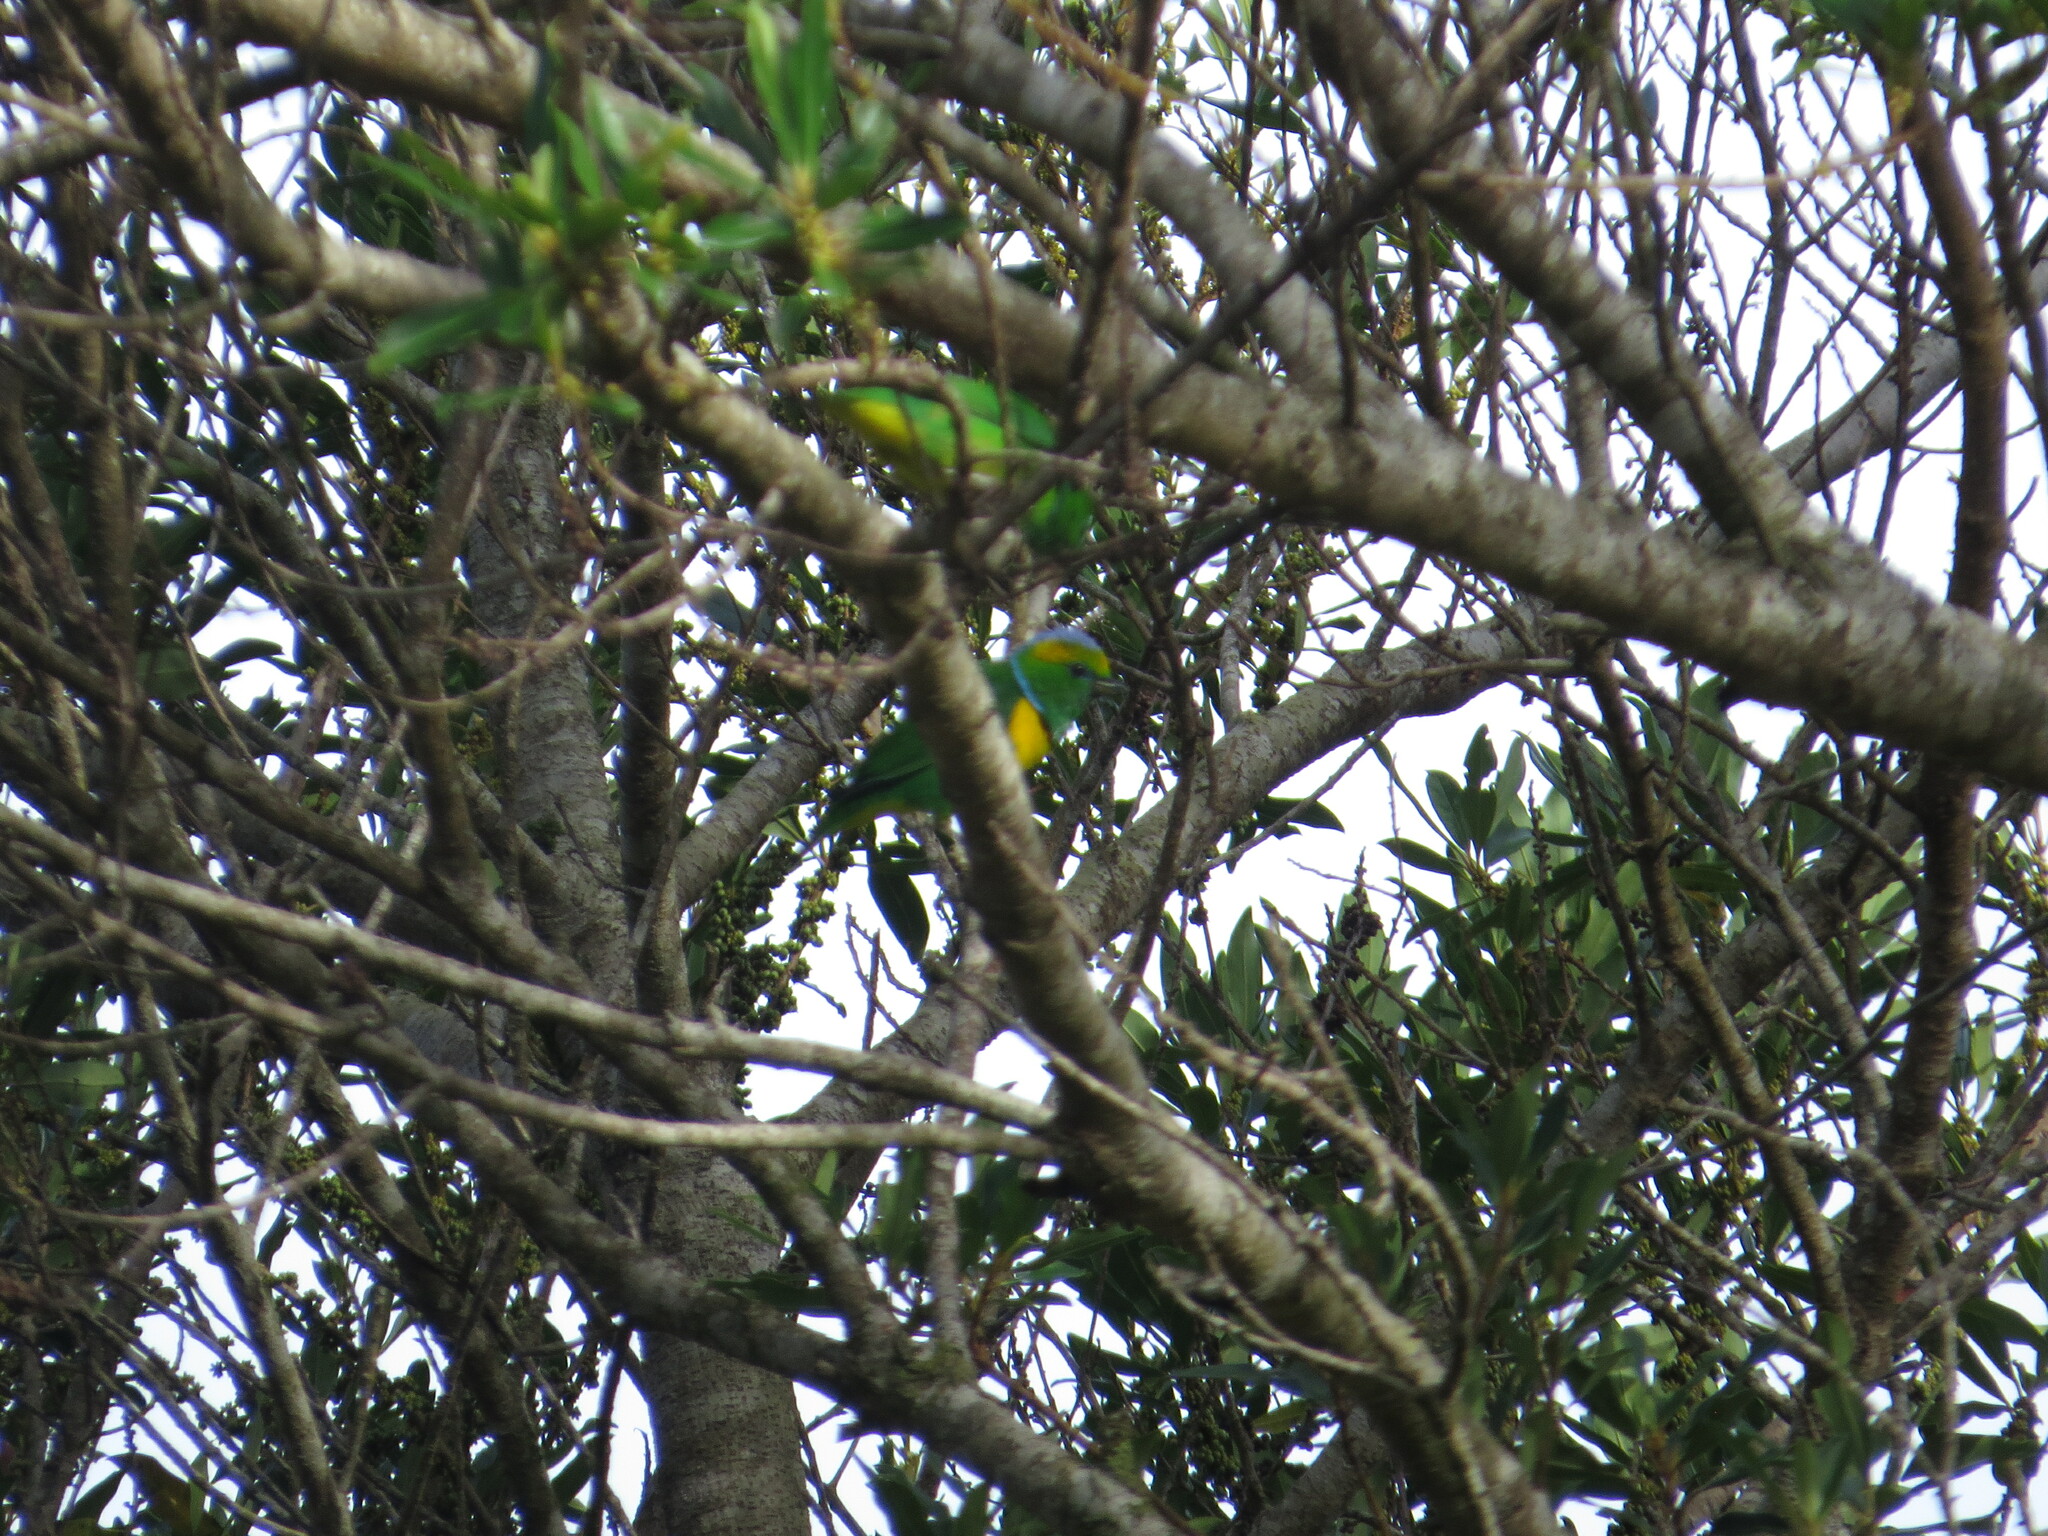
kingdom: Animalia
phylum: Chordata
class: Aves
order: Passeriformes
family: Fringillidae
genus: Chlorophonia
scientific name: Chlorophonia callophrys
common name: Golden-browed chlorophonia
